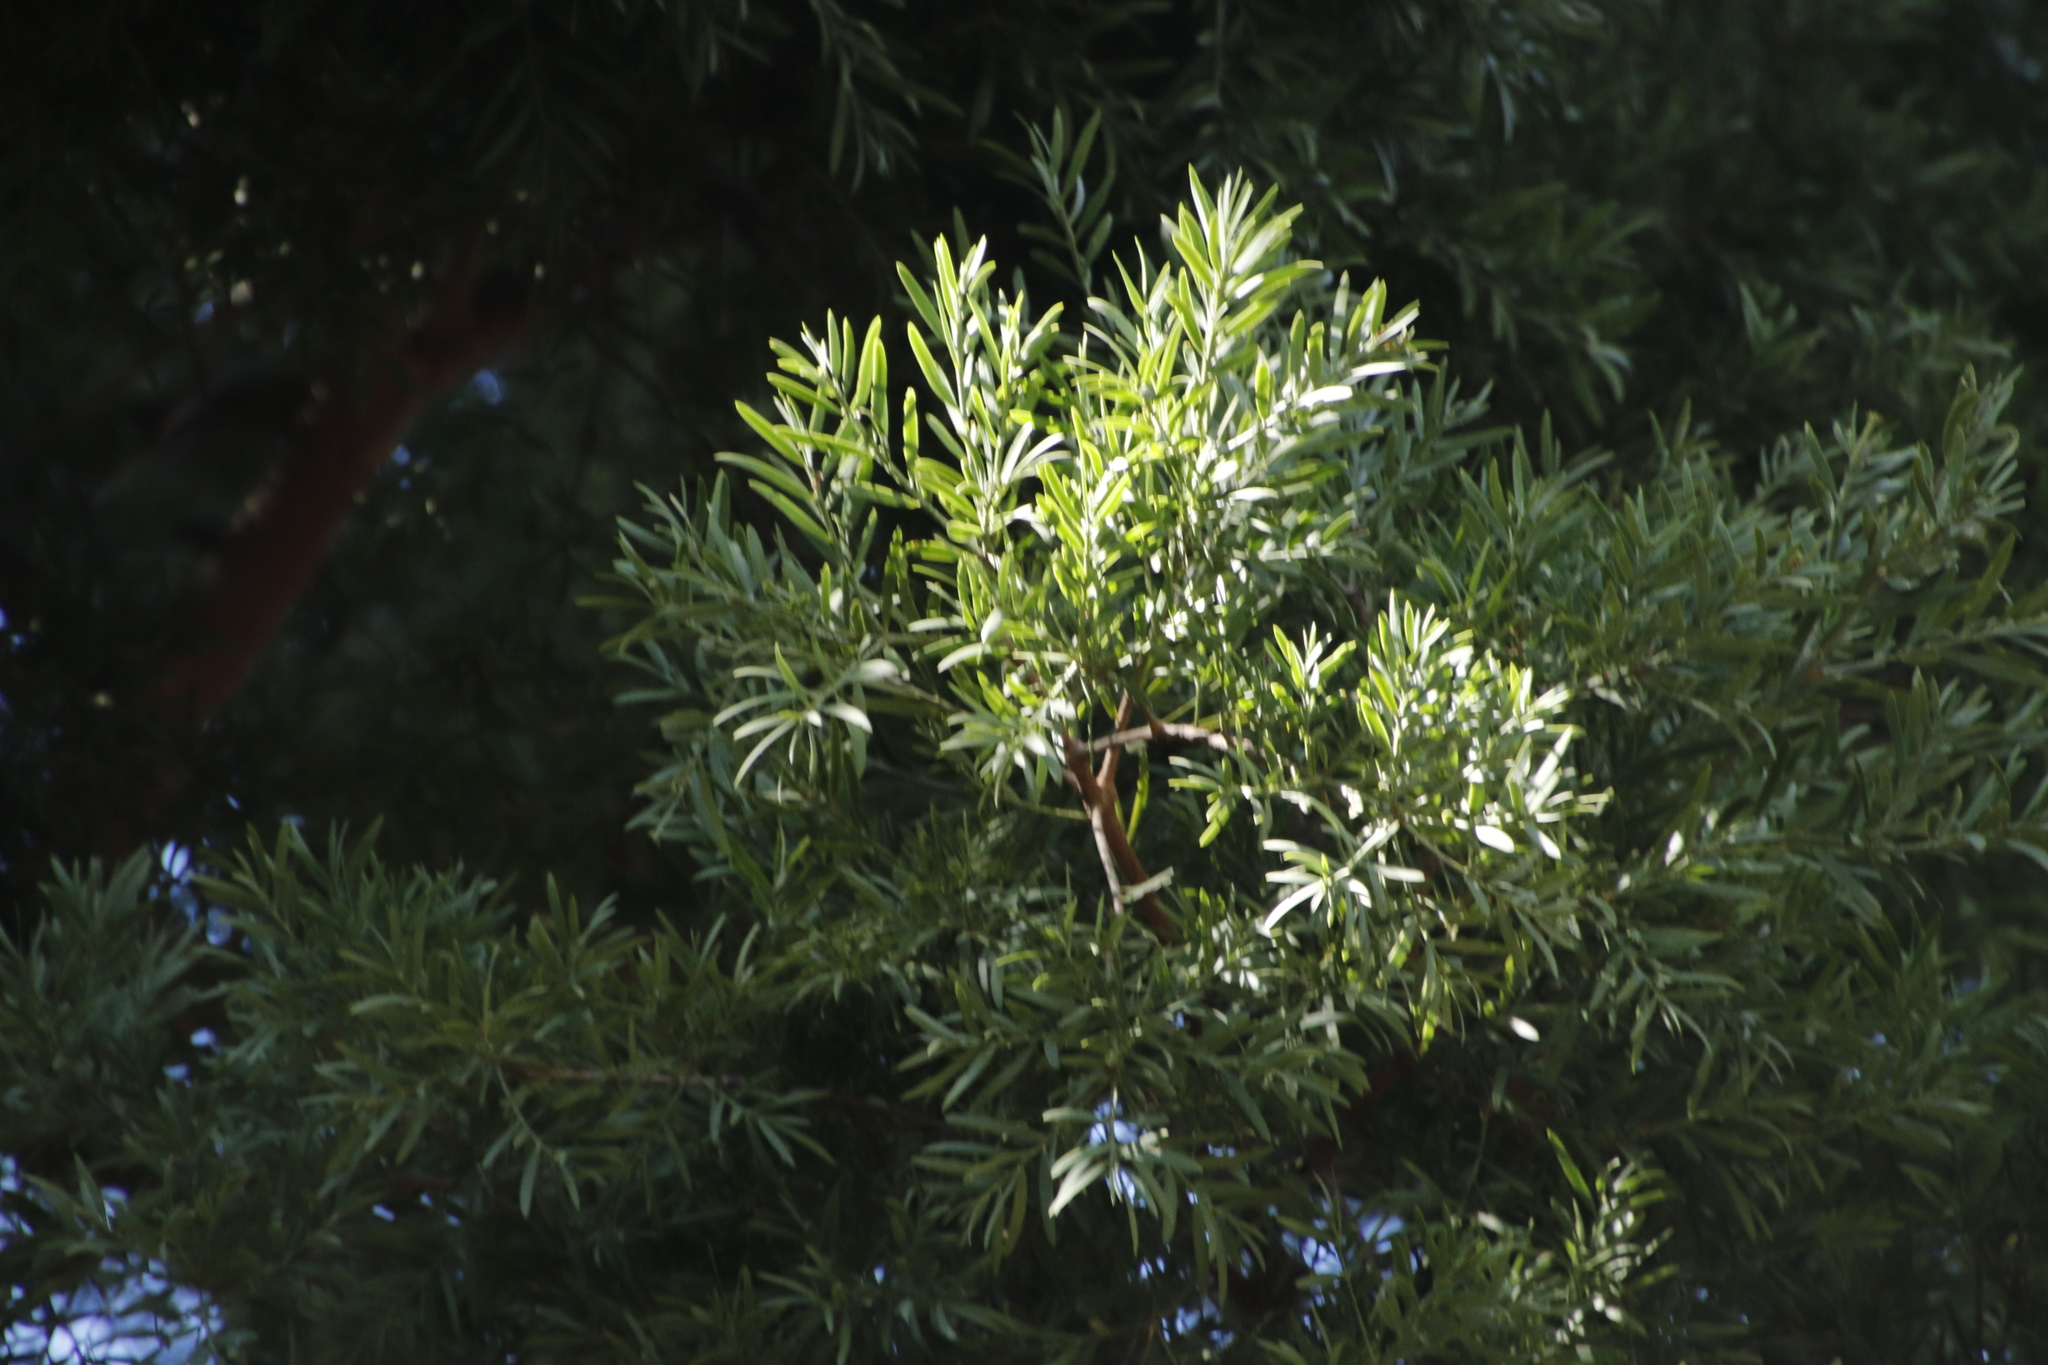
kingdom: Plantae
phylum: Tracheophyta
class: Pinopsida
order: Pinales
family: Podocarpaceae
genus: Afrocarpus
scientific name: Afrocarpus falcatus
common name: Bastard yellowwood
